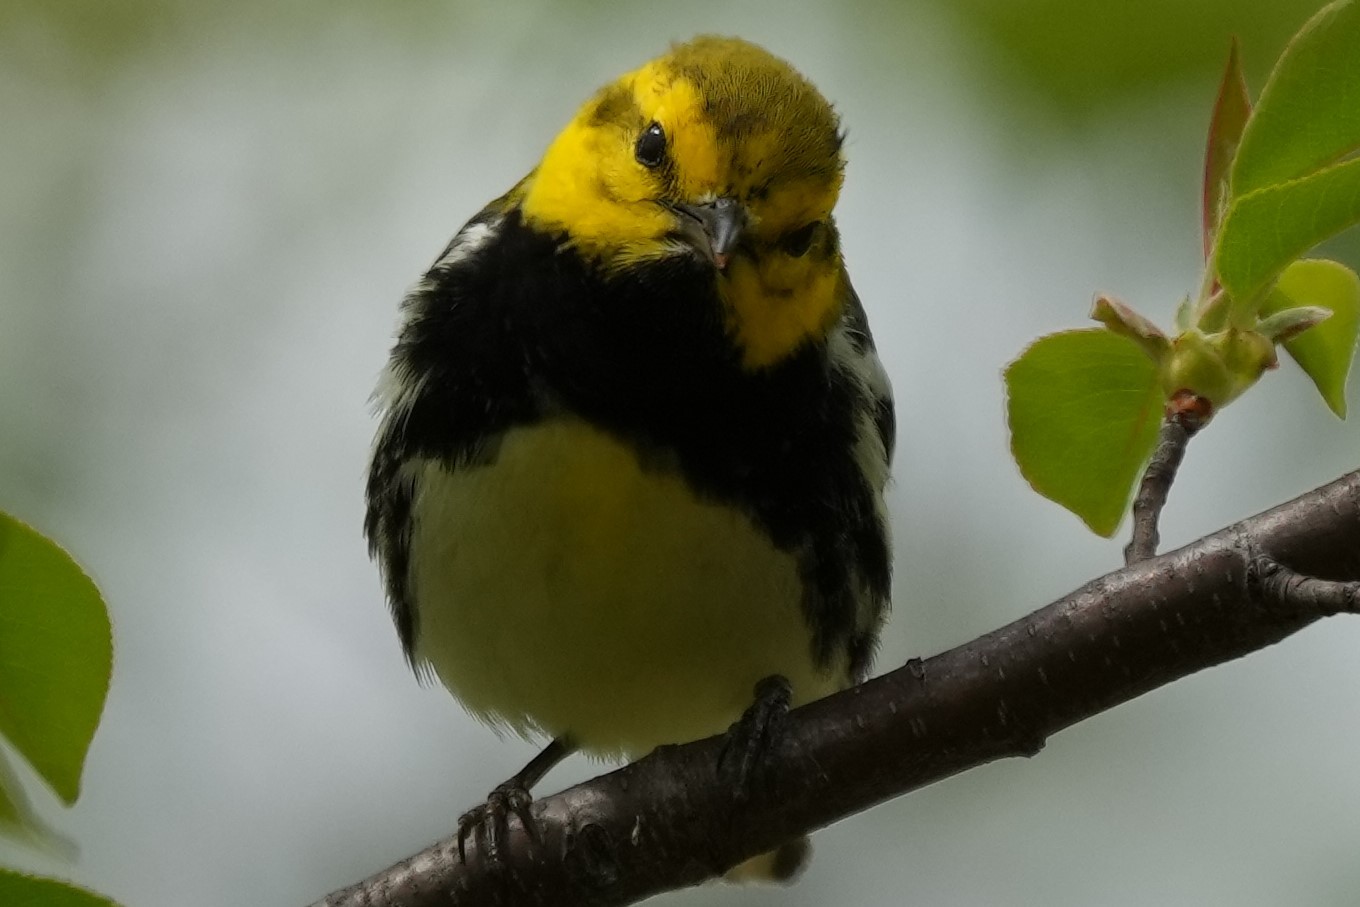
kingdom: Animalia
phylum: Chordata
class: Aves
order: Passeriformes
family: Parulidae
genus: Setophaga
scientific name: Setophaga virens
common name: Black-throated green warbler
